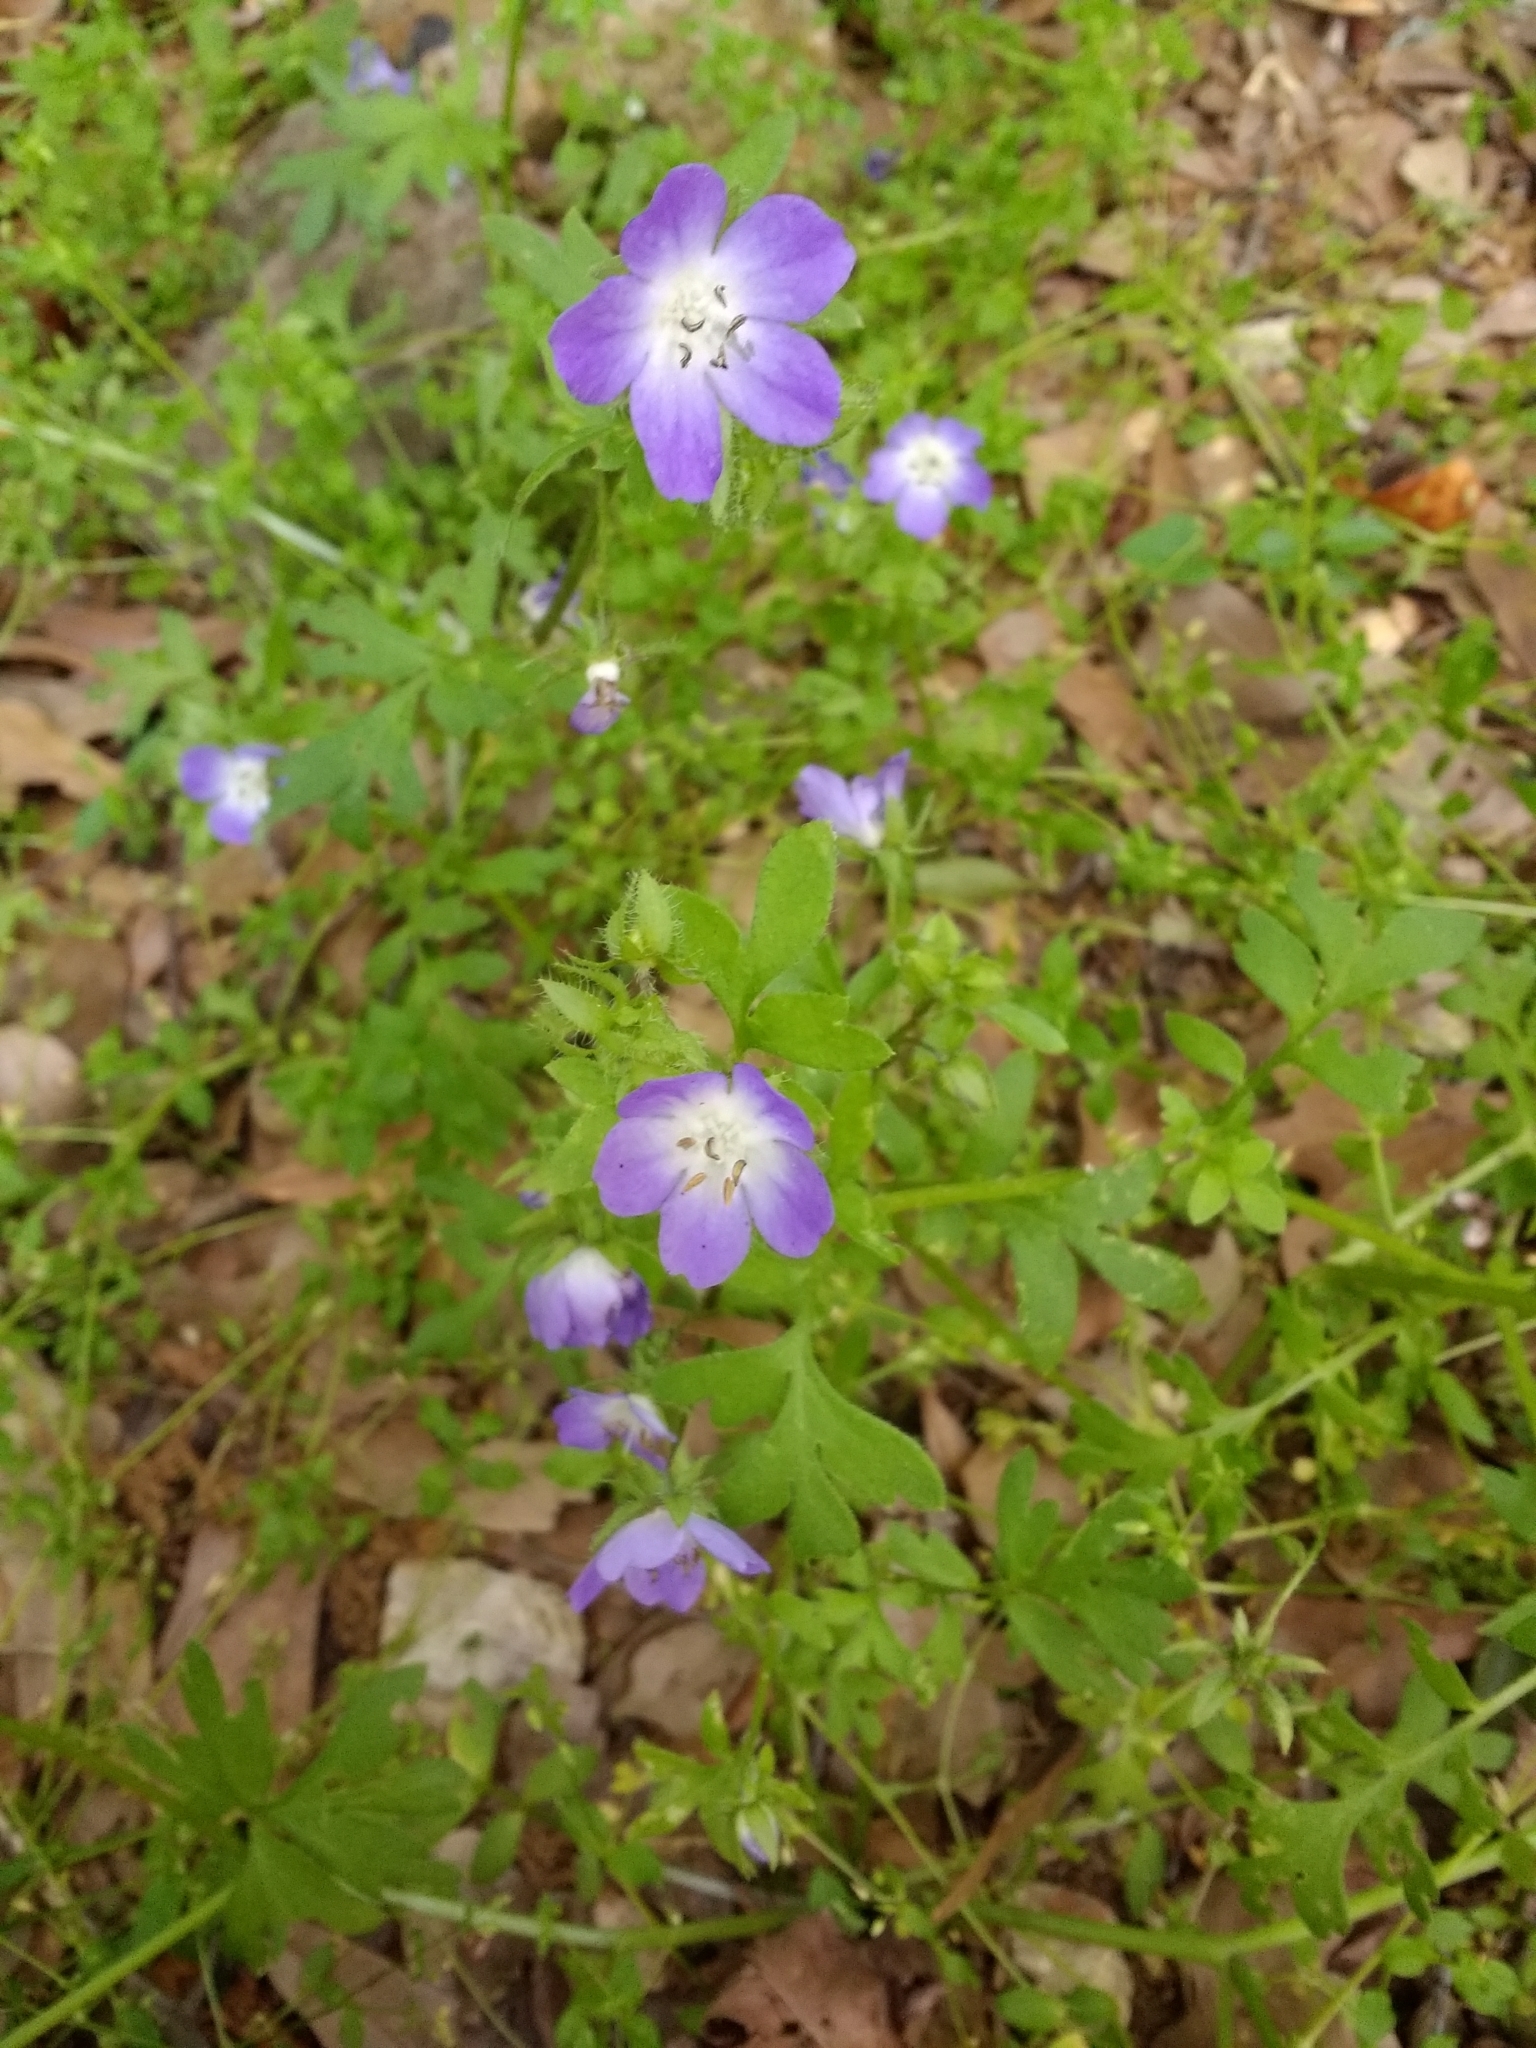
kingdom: Plantae
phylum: Tracheophyta
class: Magnoliopsida
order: Boraginales
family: Hydrophyllaceae
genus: Nemophila
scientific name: Nemophila phacelioides
